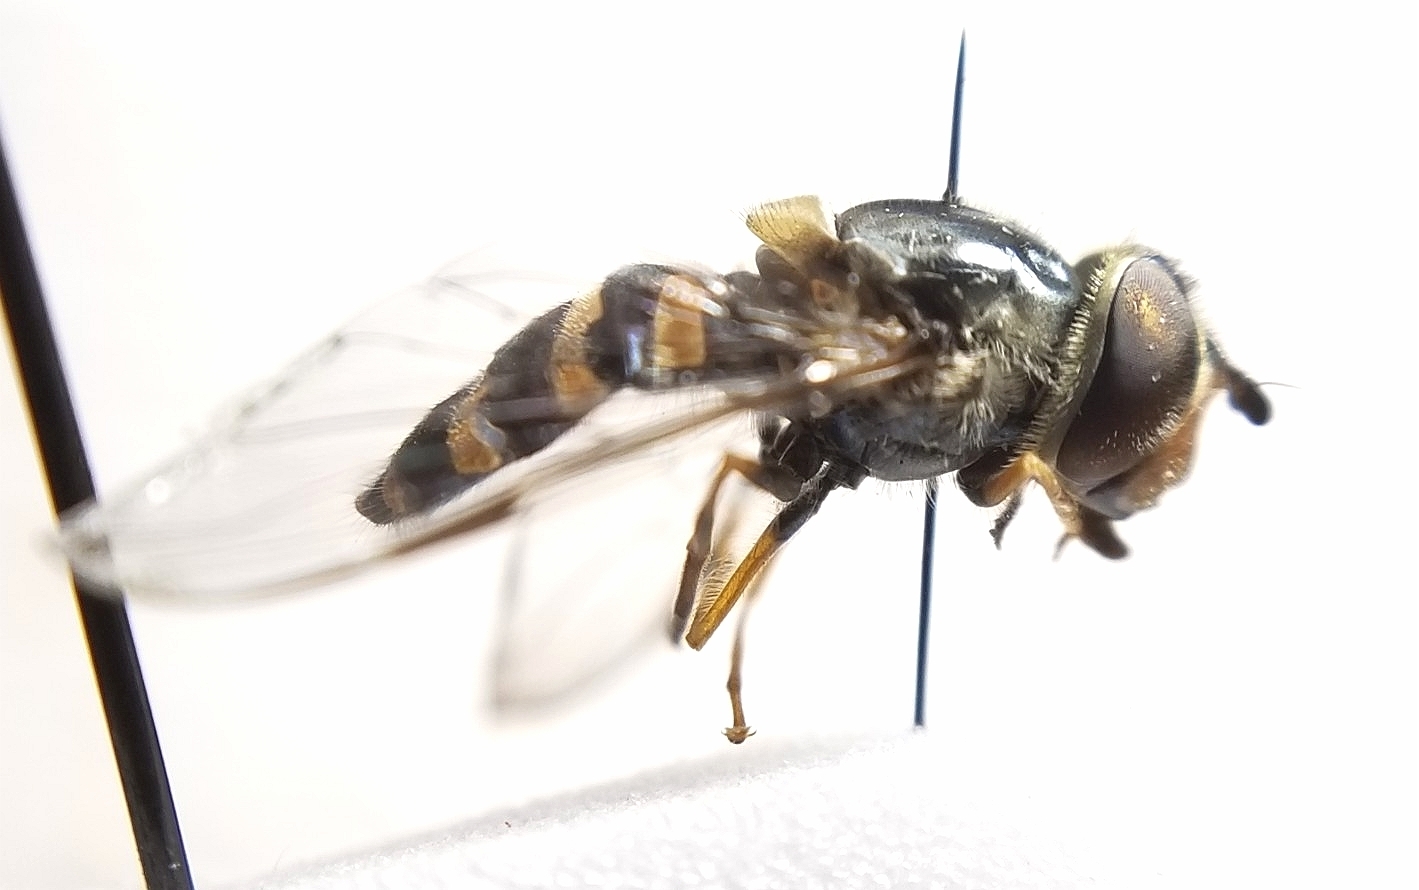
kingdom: Animalia
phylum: Arthropoda
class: Insecta
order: Diptera
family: Syrphidae
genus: Dasysyrphus
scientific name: Dasysyrphus creper
